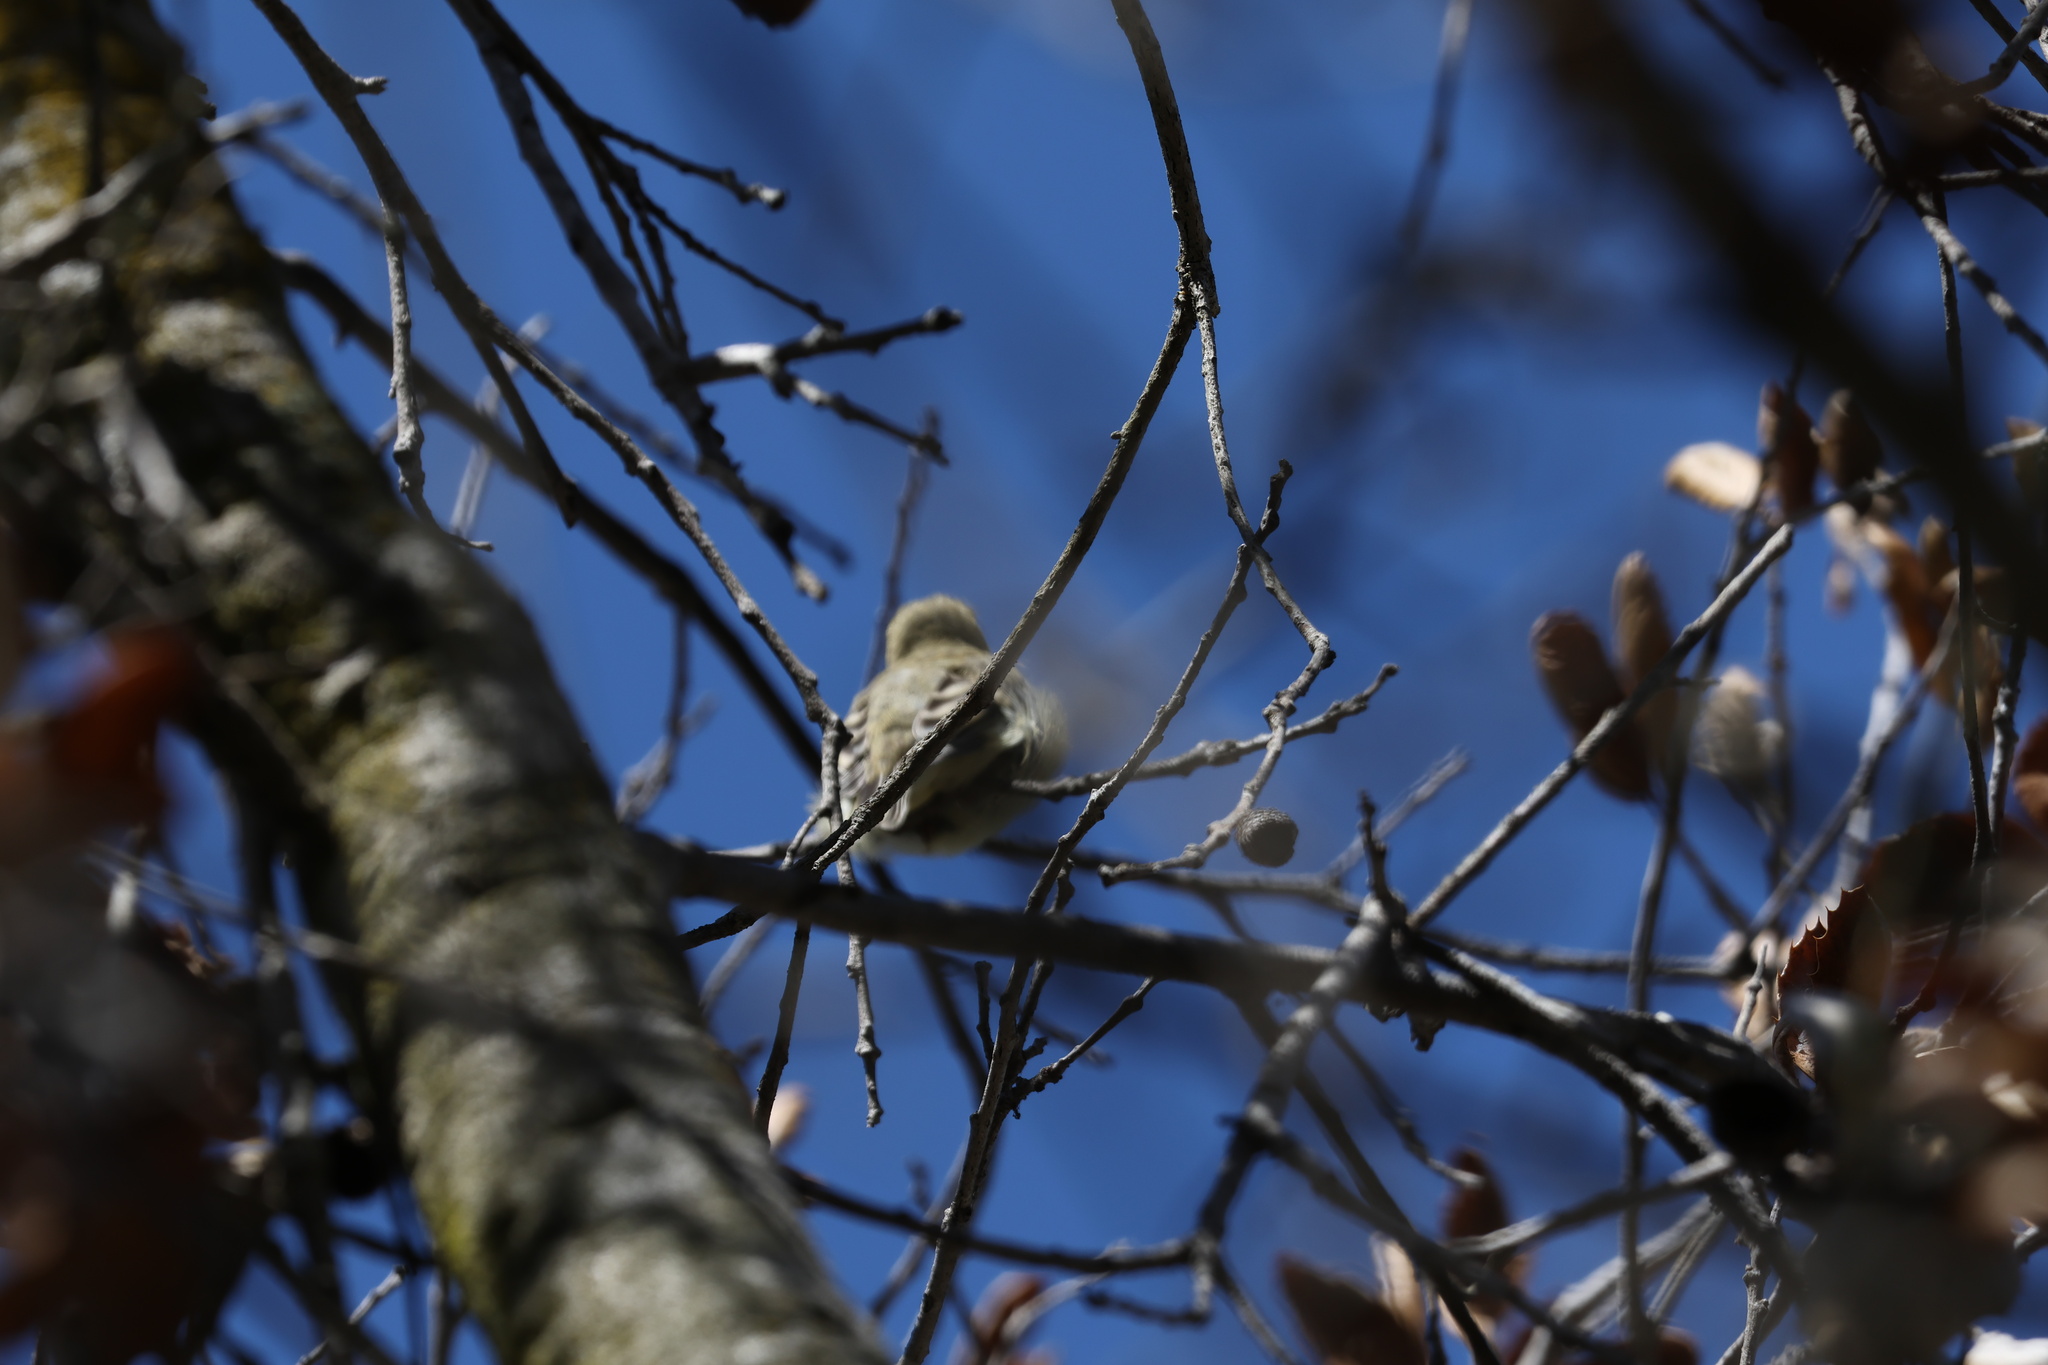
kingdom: Animalia
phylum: Chordata
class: Aves
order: Passeriformes
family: Fringillidae
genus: Spinus
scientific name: Spinus psaltria
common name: Lesser goldfinch
